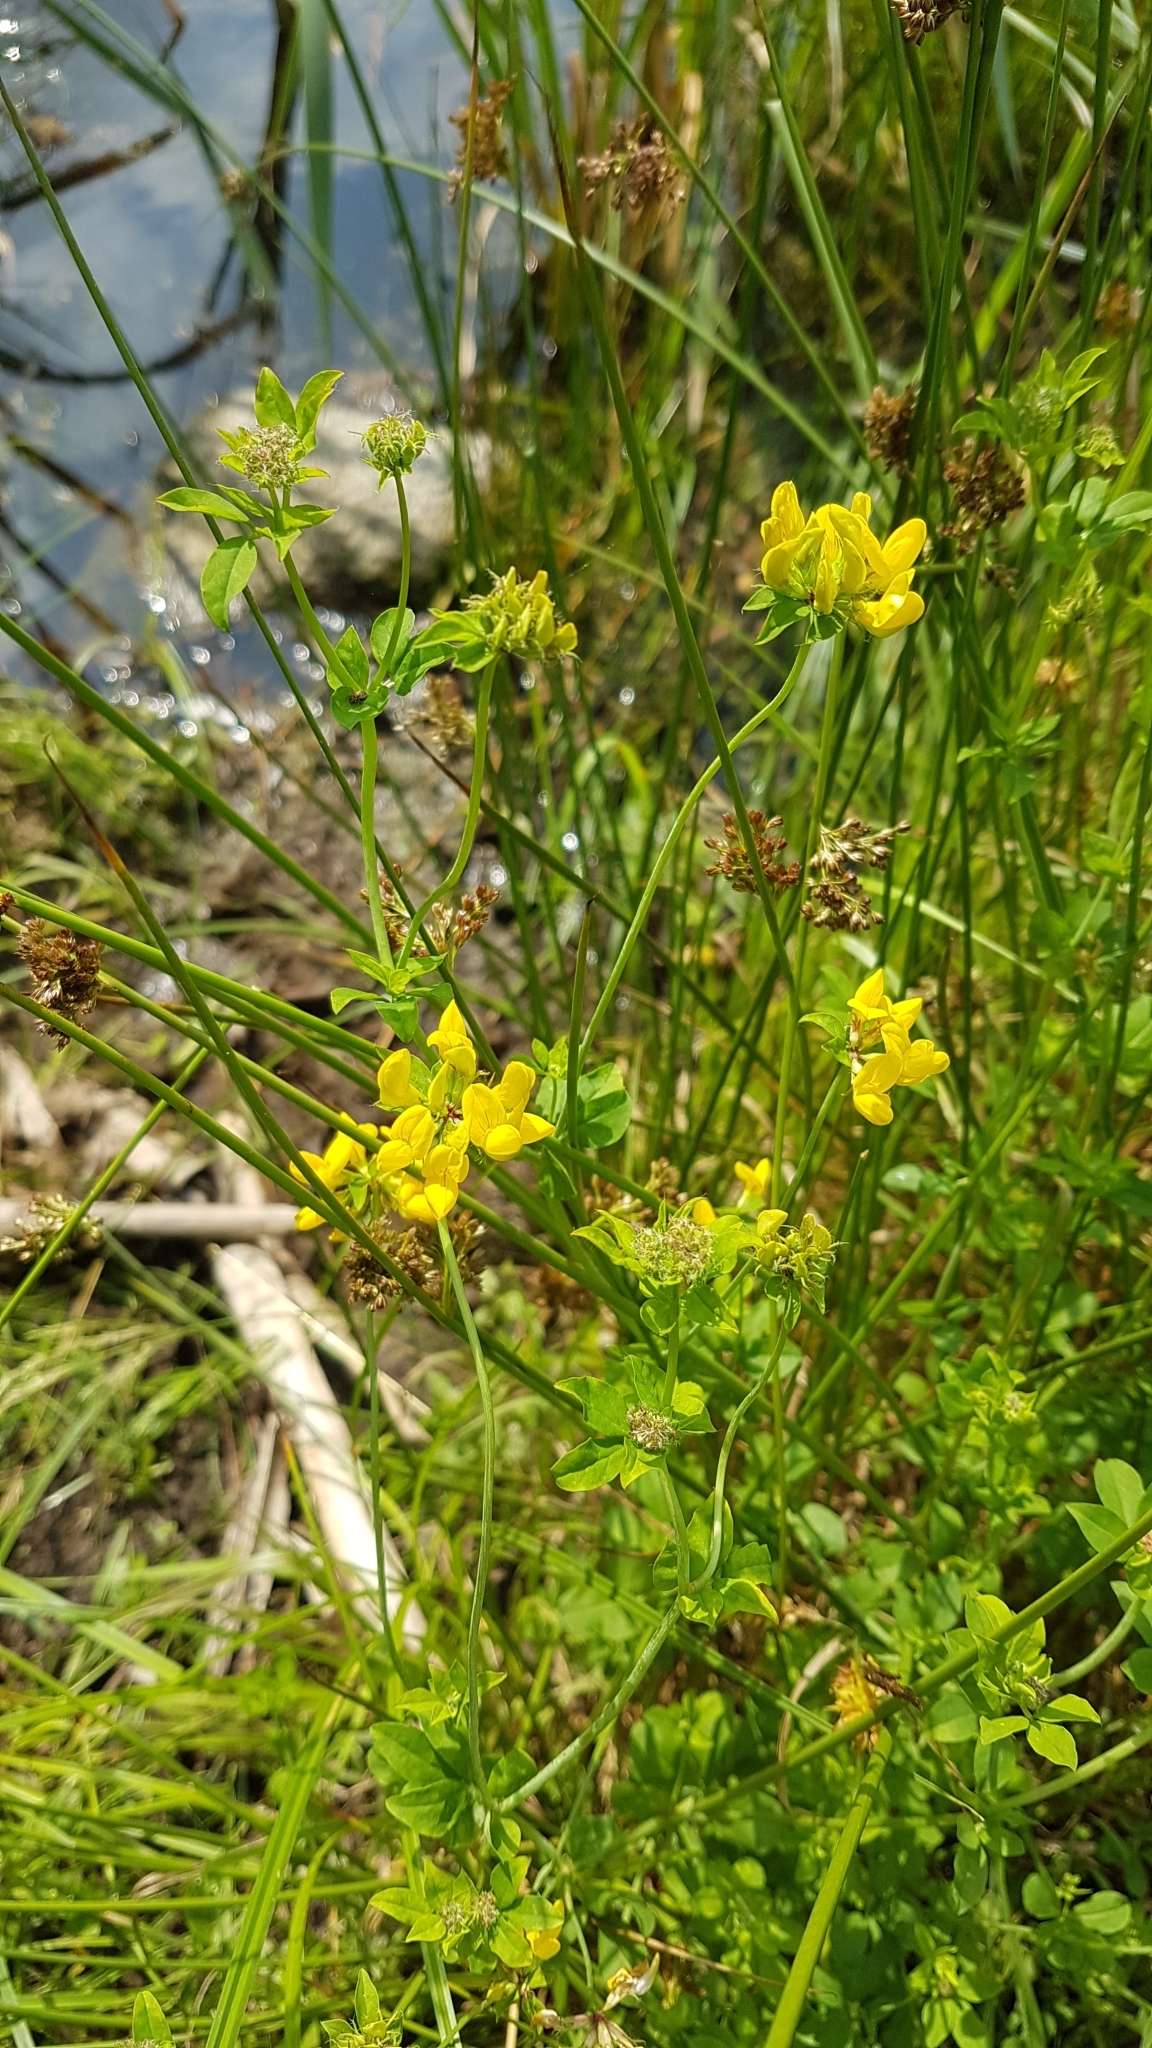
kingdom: Plantae
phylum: Tracheophyta
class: Magnoliopsida
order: Fabales
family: Fabaceae
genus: Lotus
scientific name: Lotus pedunculatus
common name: Greater birdsfoot-trefoil
